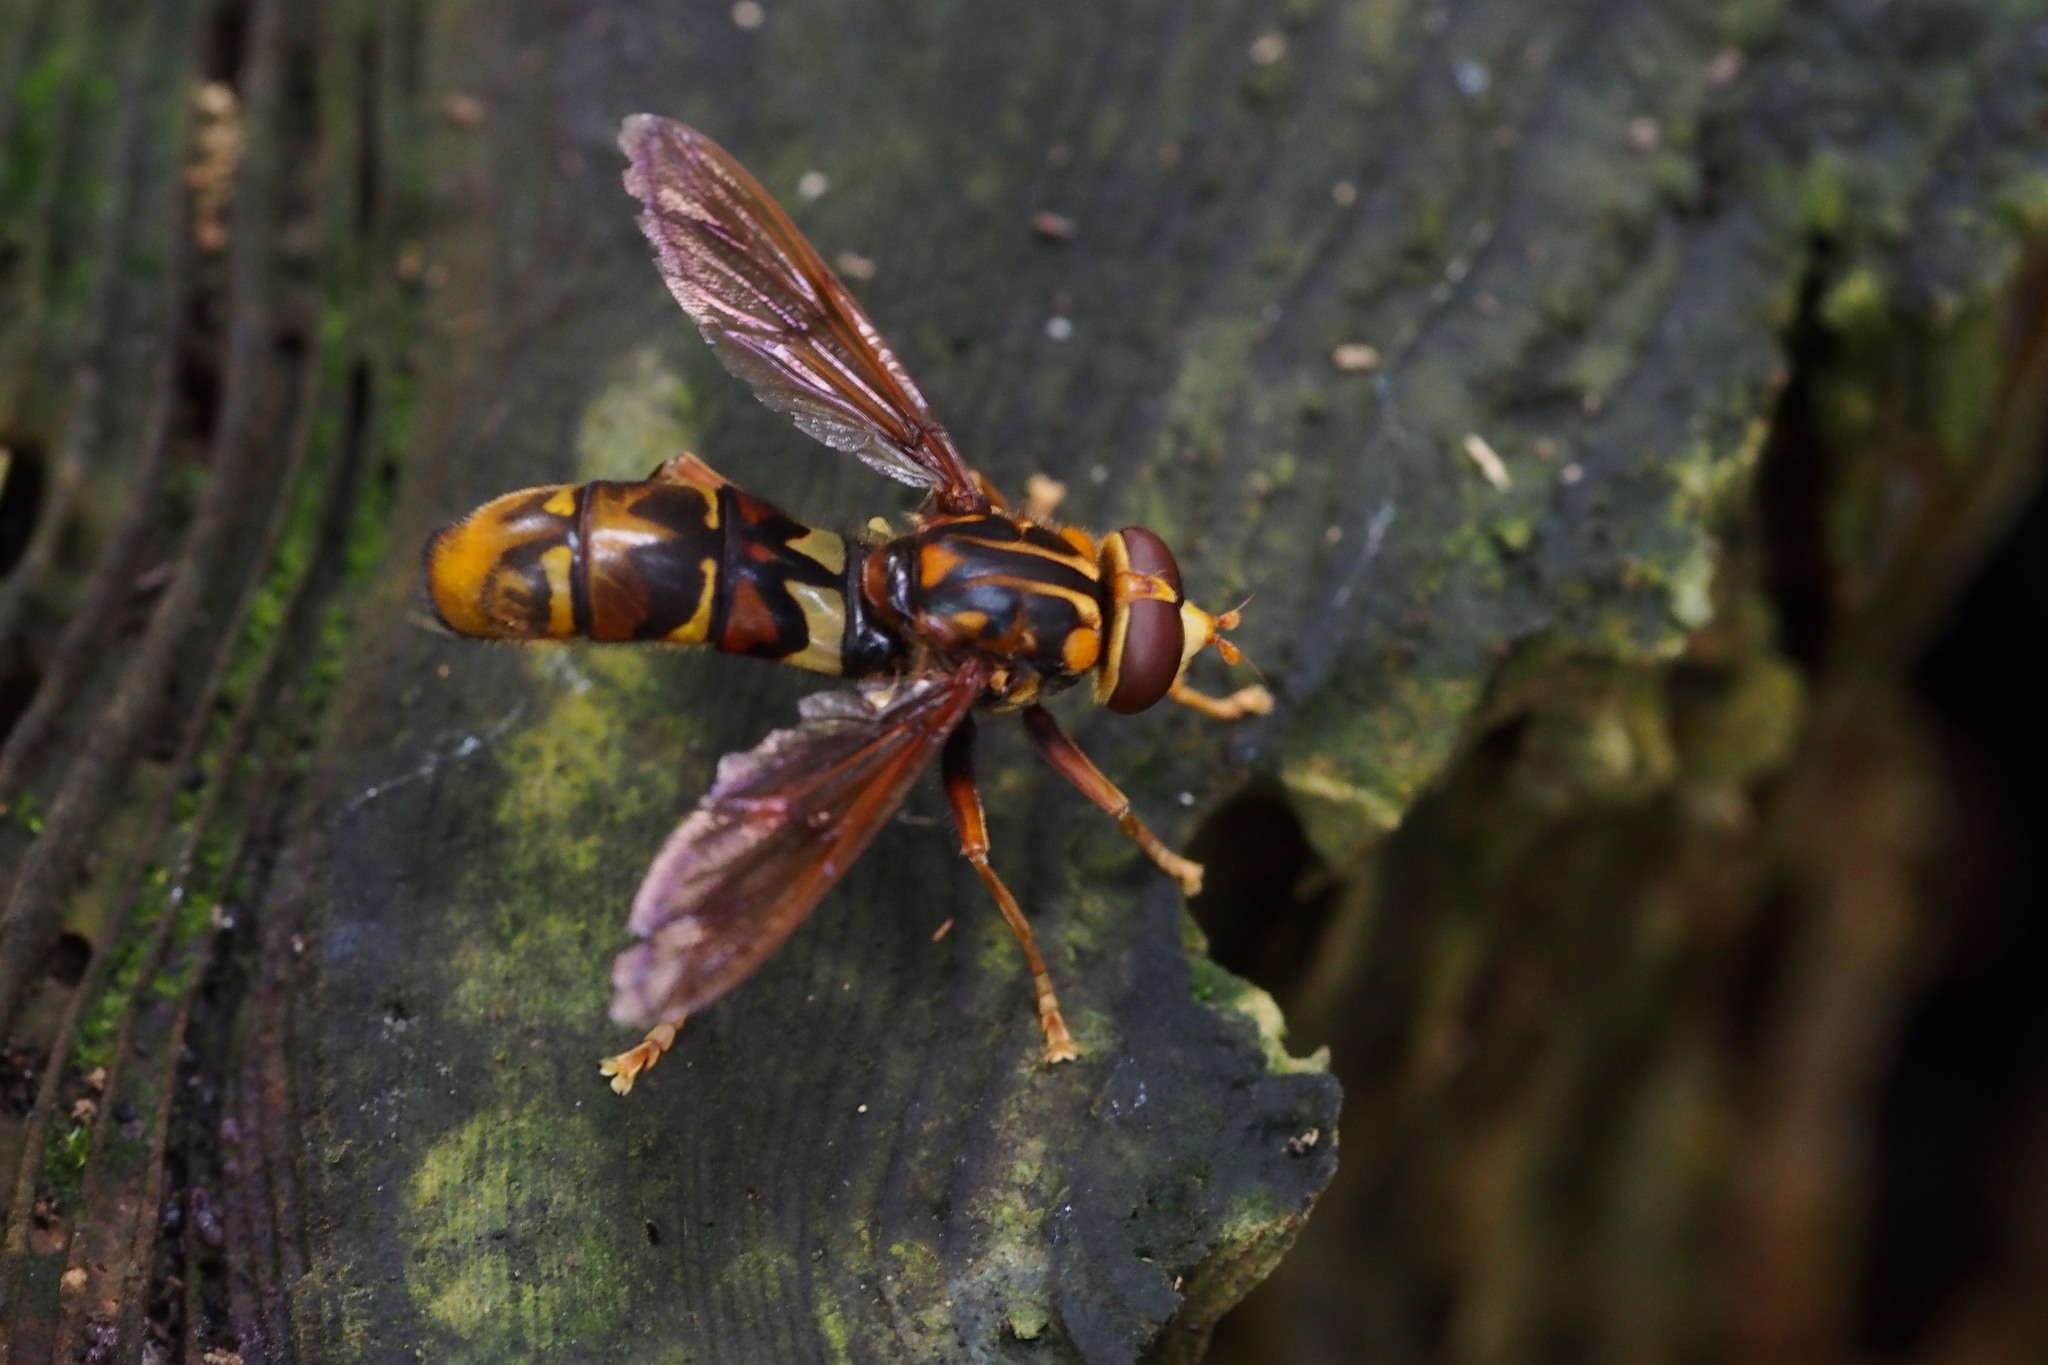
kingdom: Animalia
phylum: Arthropoda
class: Insecta
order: Diptera
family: Syrphidae
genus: Milesia
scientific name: Milesia undulata
